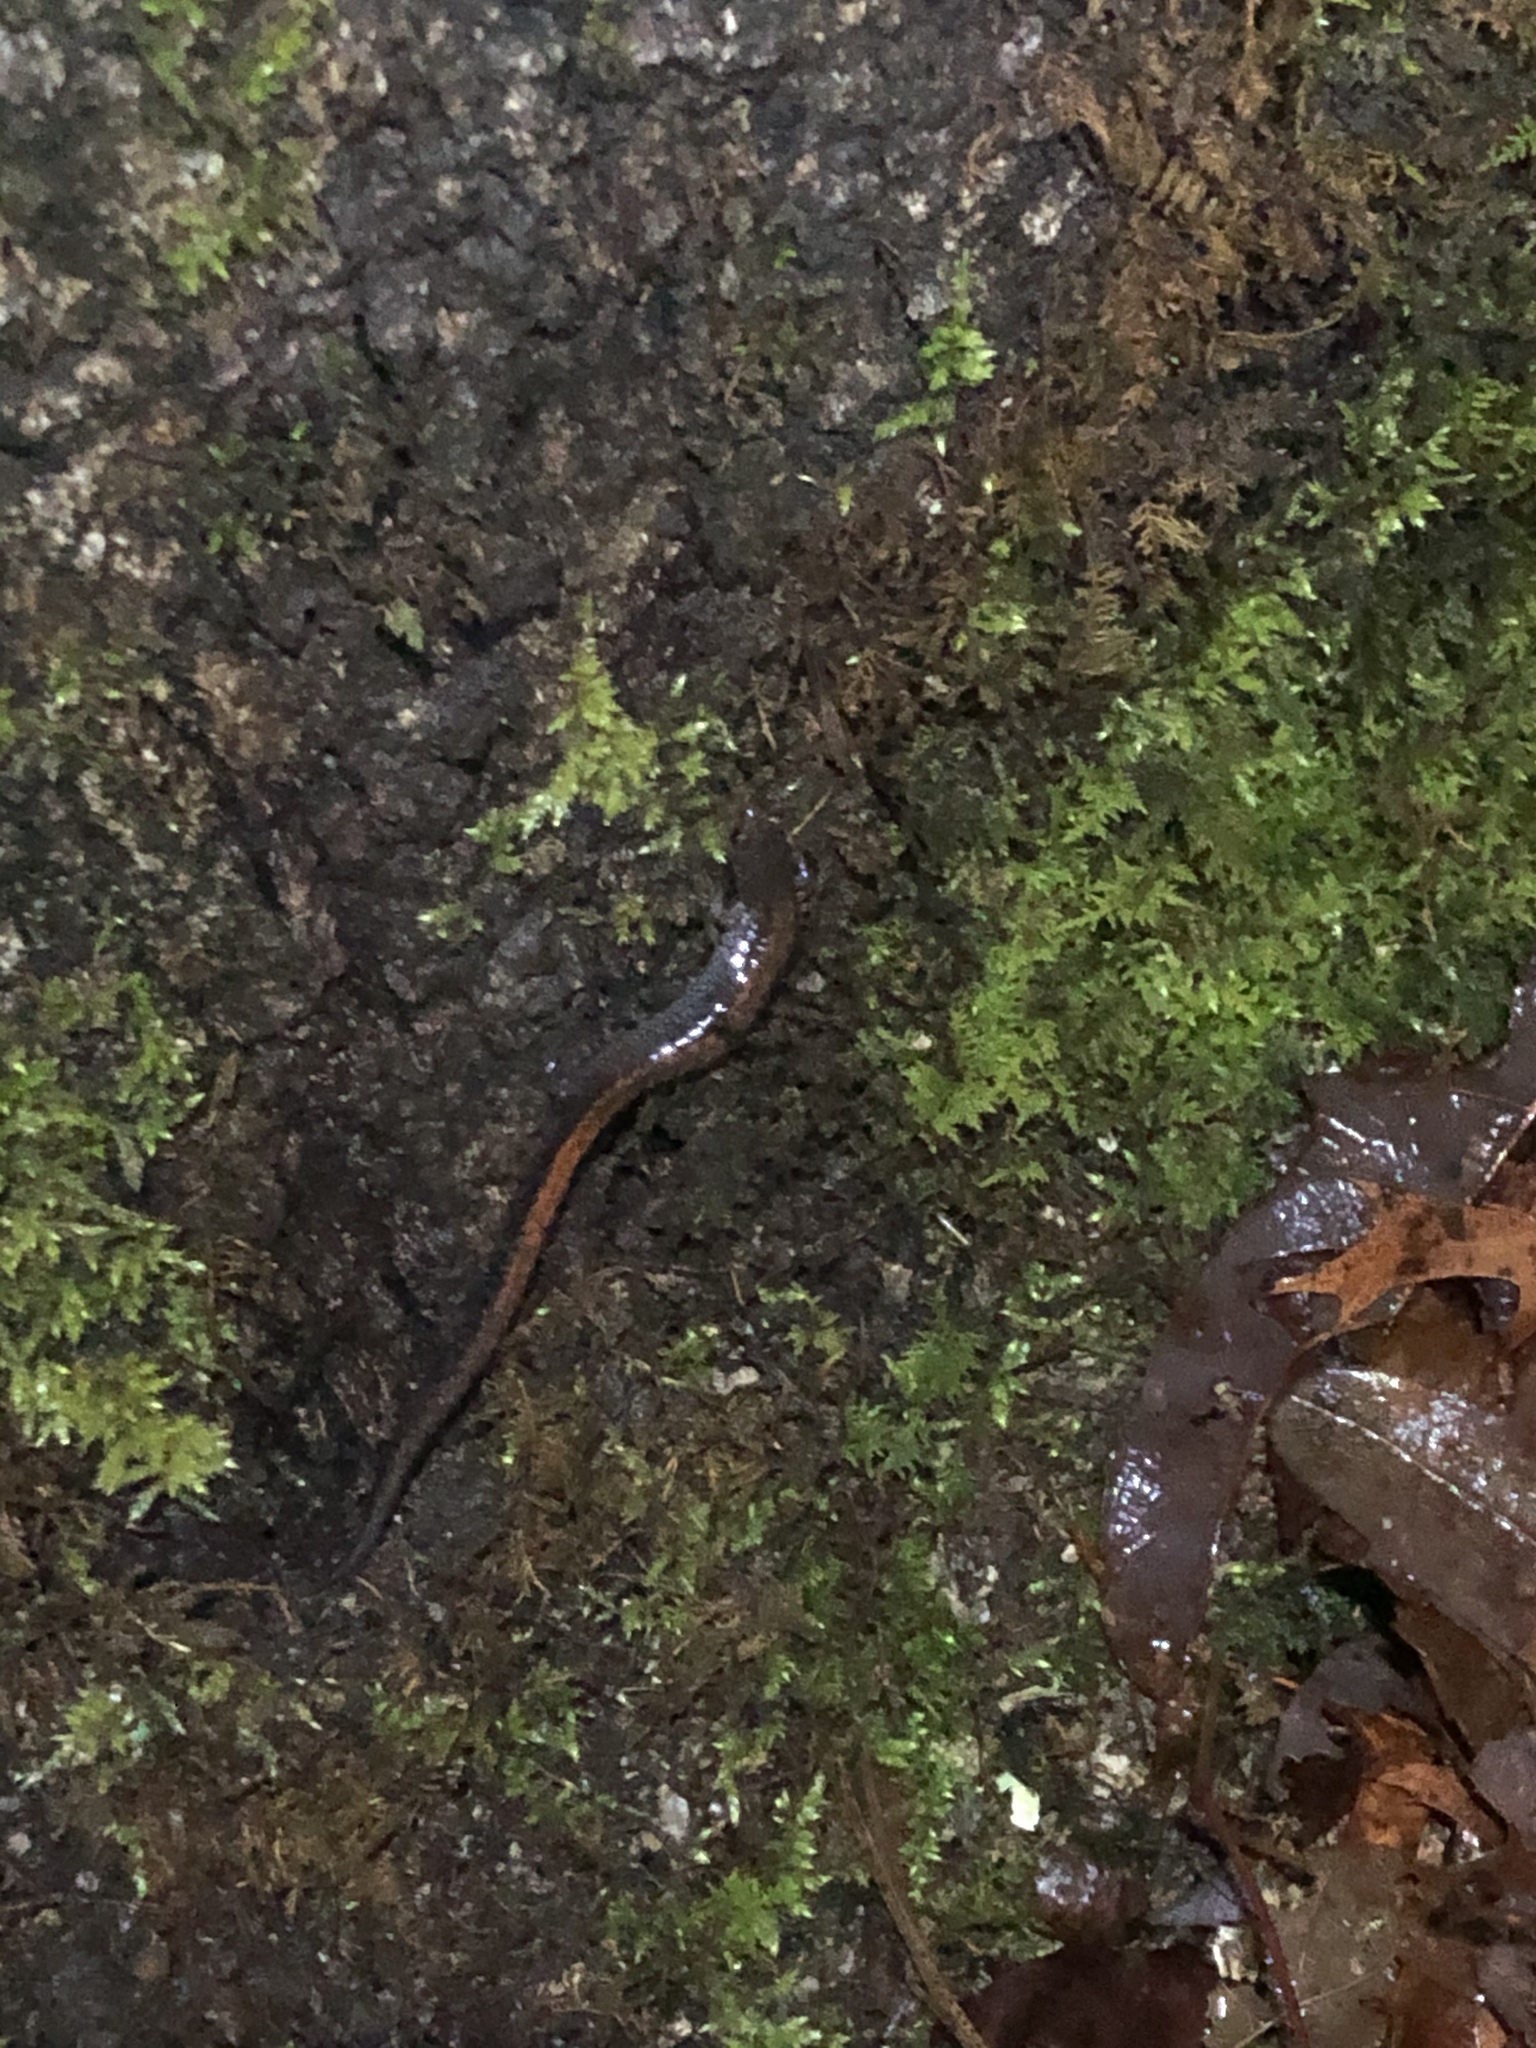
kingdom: Animalia
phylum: Chordata
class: Amphibia
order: Caudata
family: Plethodontidae
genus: Plethodon
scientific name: Plethodon cinereus
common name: Redback salamander
